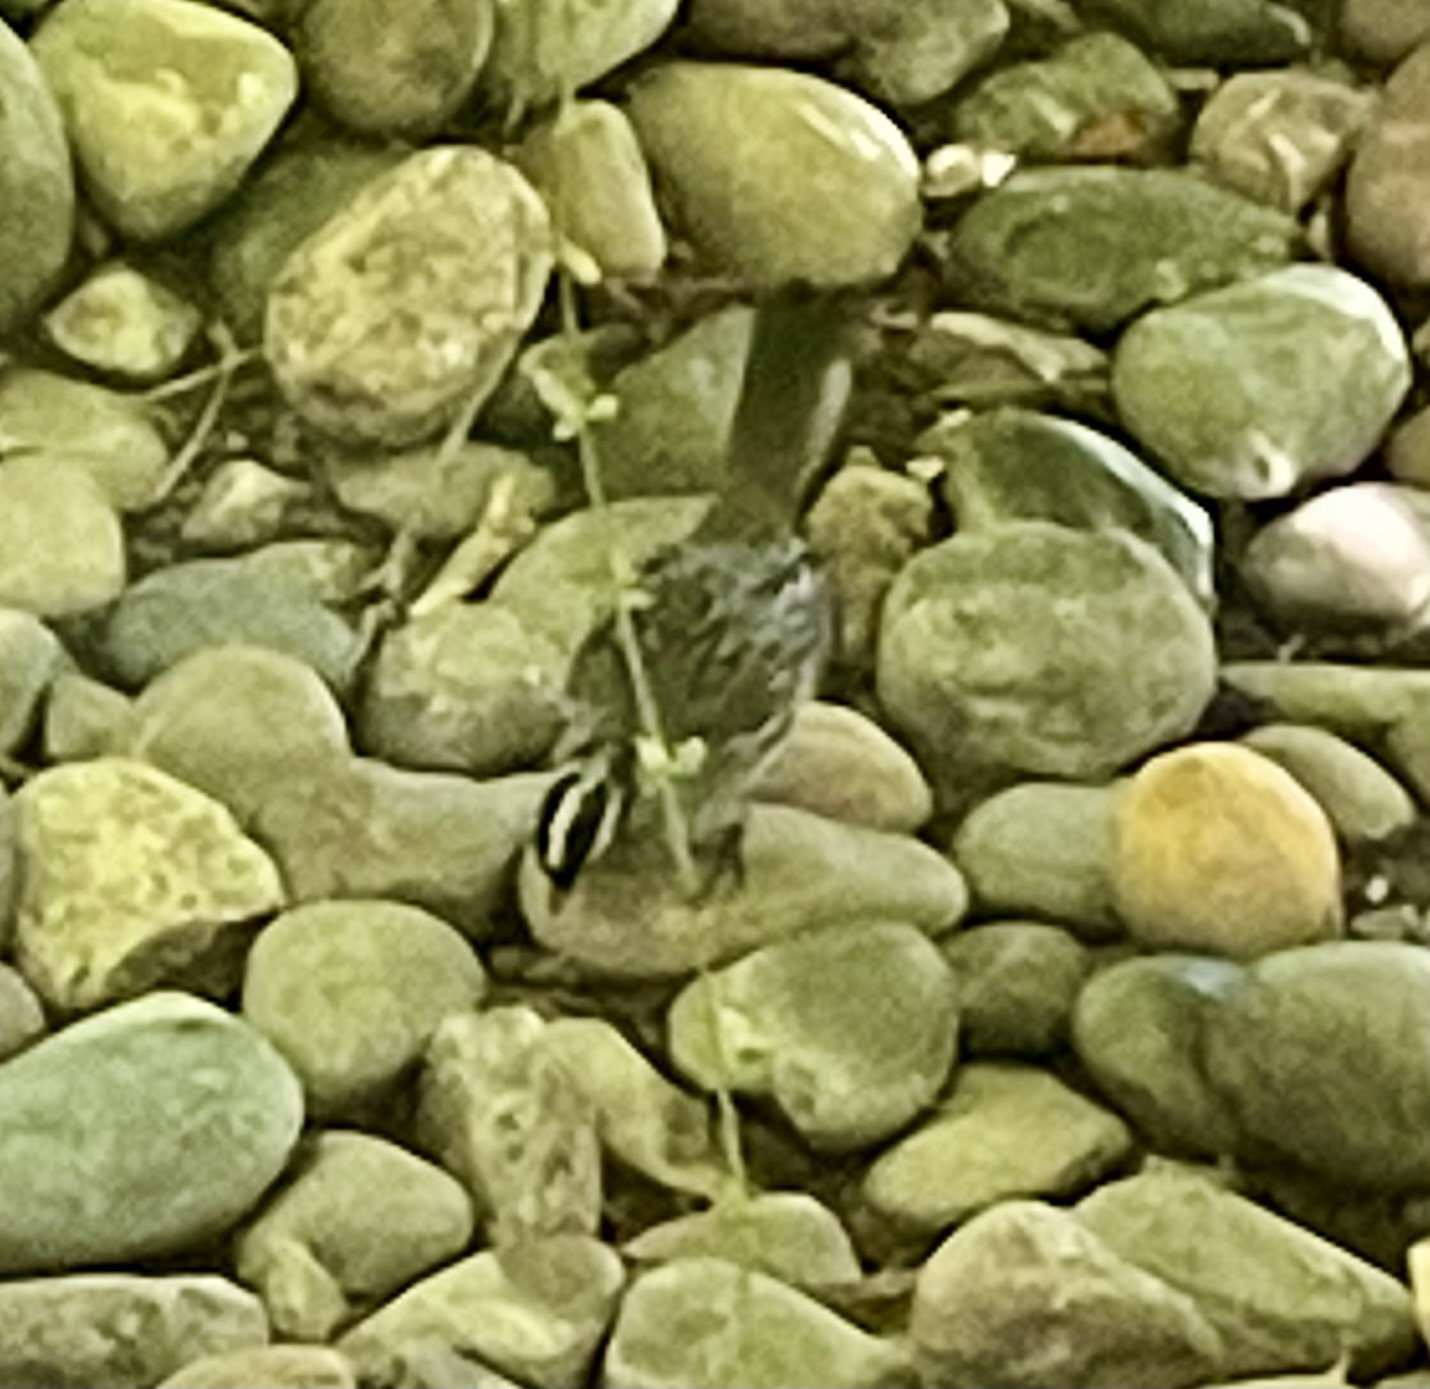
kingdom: Animalia
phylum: Chordata
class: Aves
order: Passeriformes
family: Passerellidae
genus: Zonotrichia
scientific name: Zonotrichia leucophrys
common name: White-crowned sparrow
